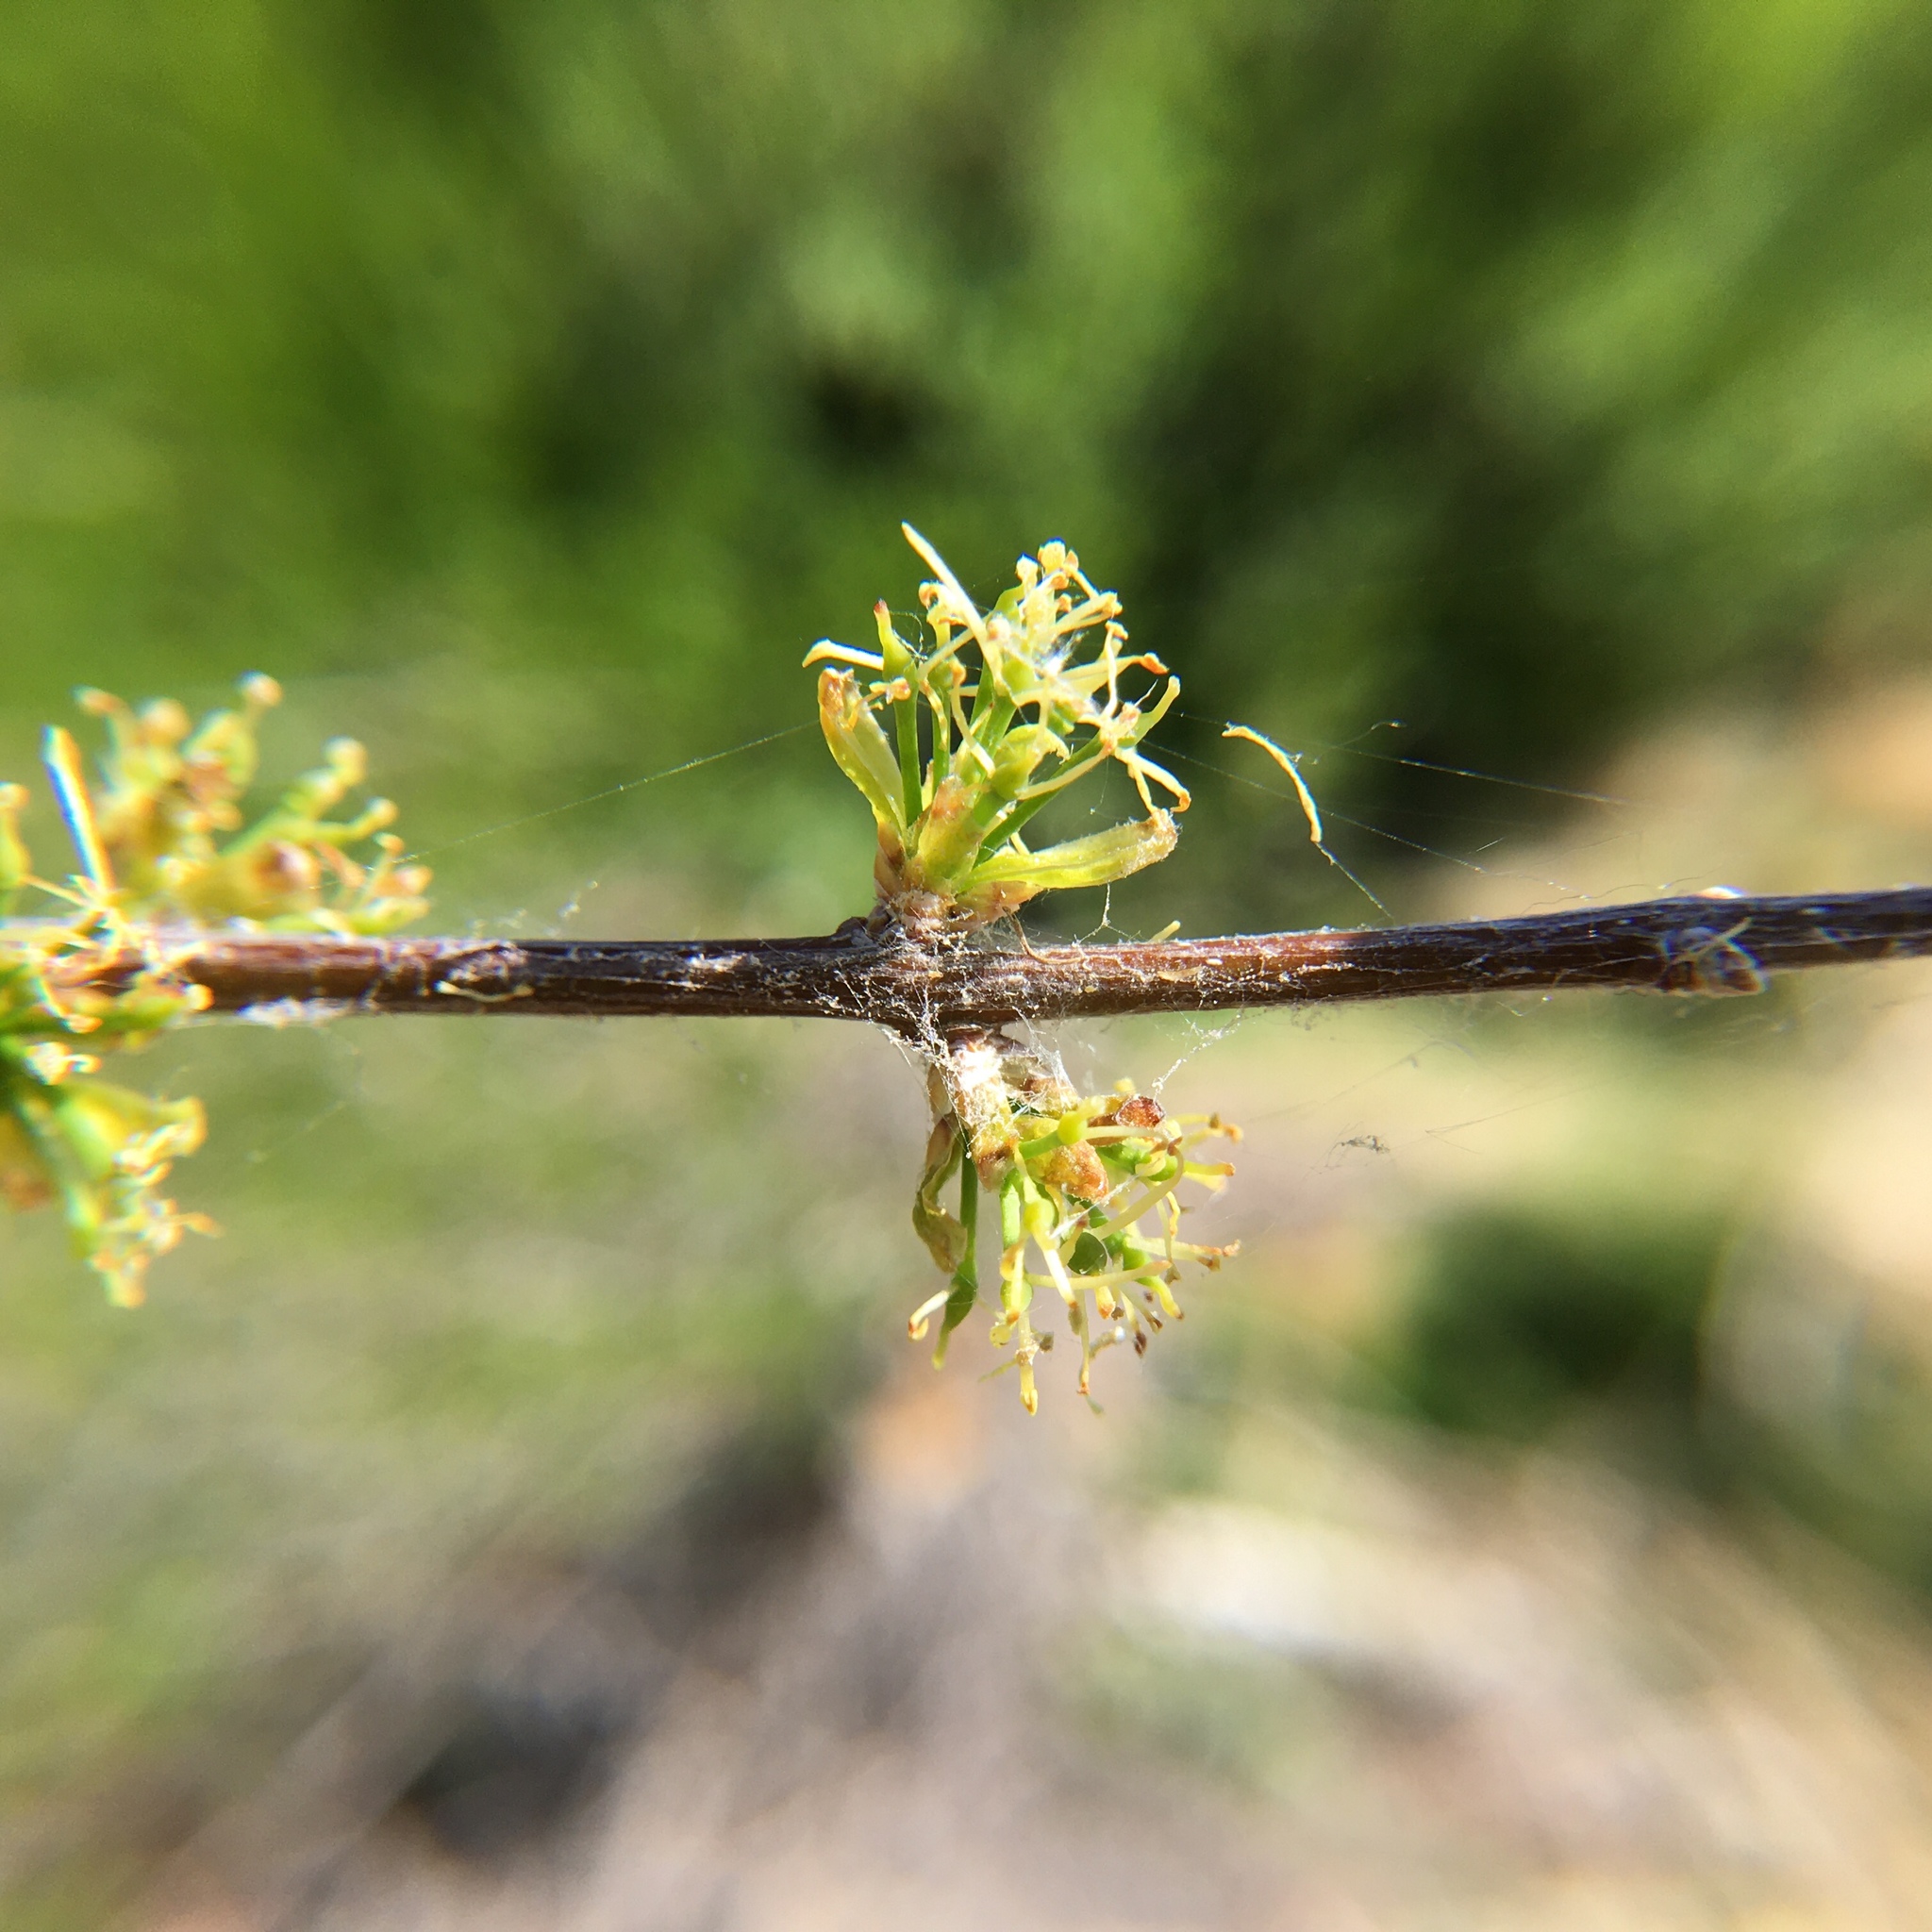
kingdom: Plantae
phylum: Tracheophyta
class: Magnoliopsida
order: Lamiales
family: Oleaceae
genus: Forestiera
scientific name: Forestiera pubescens
